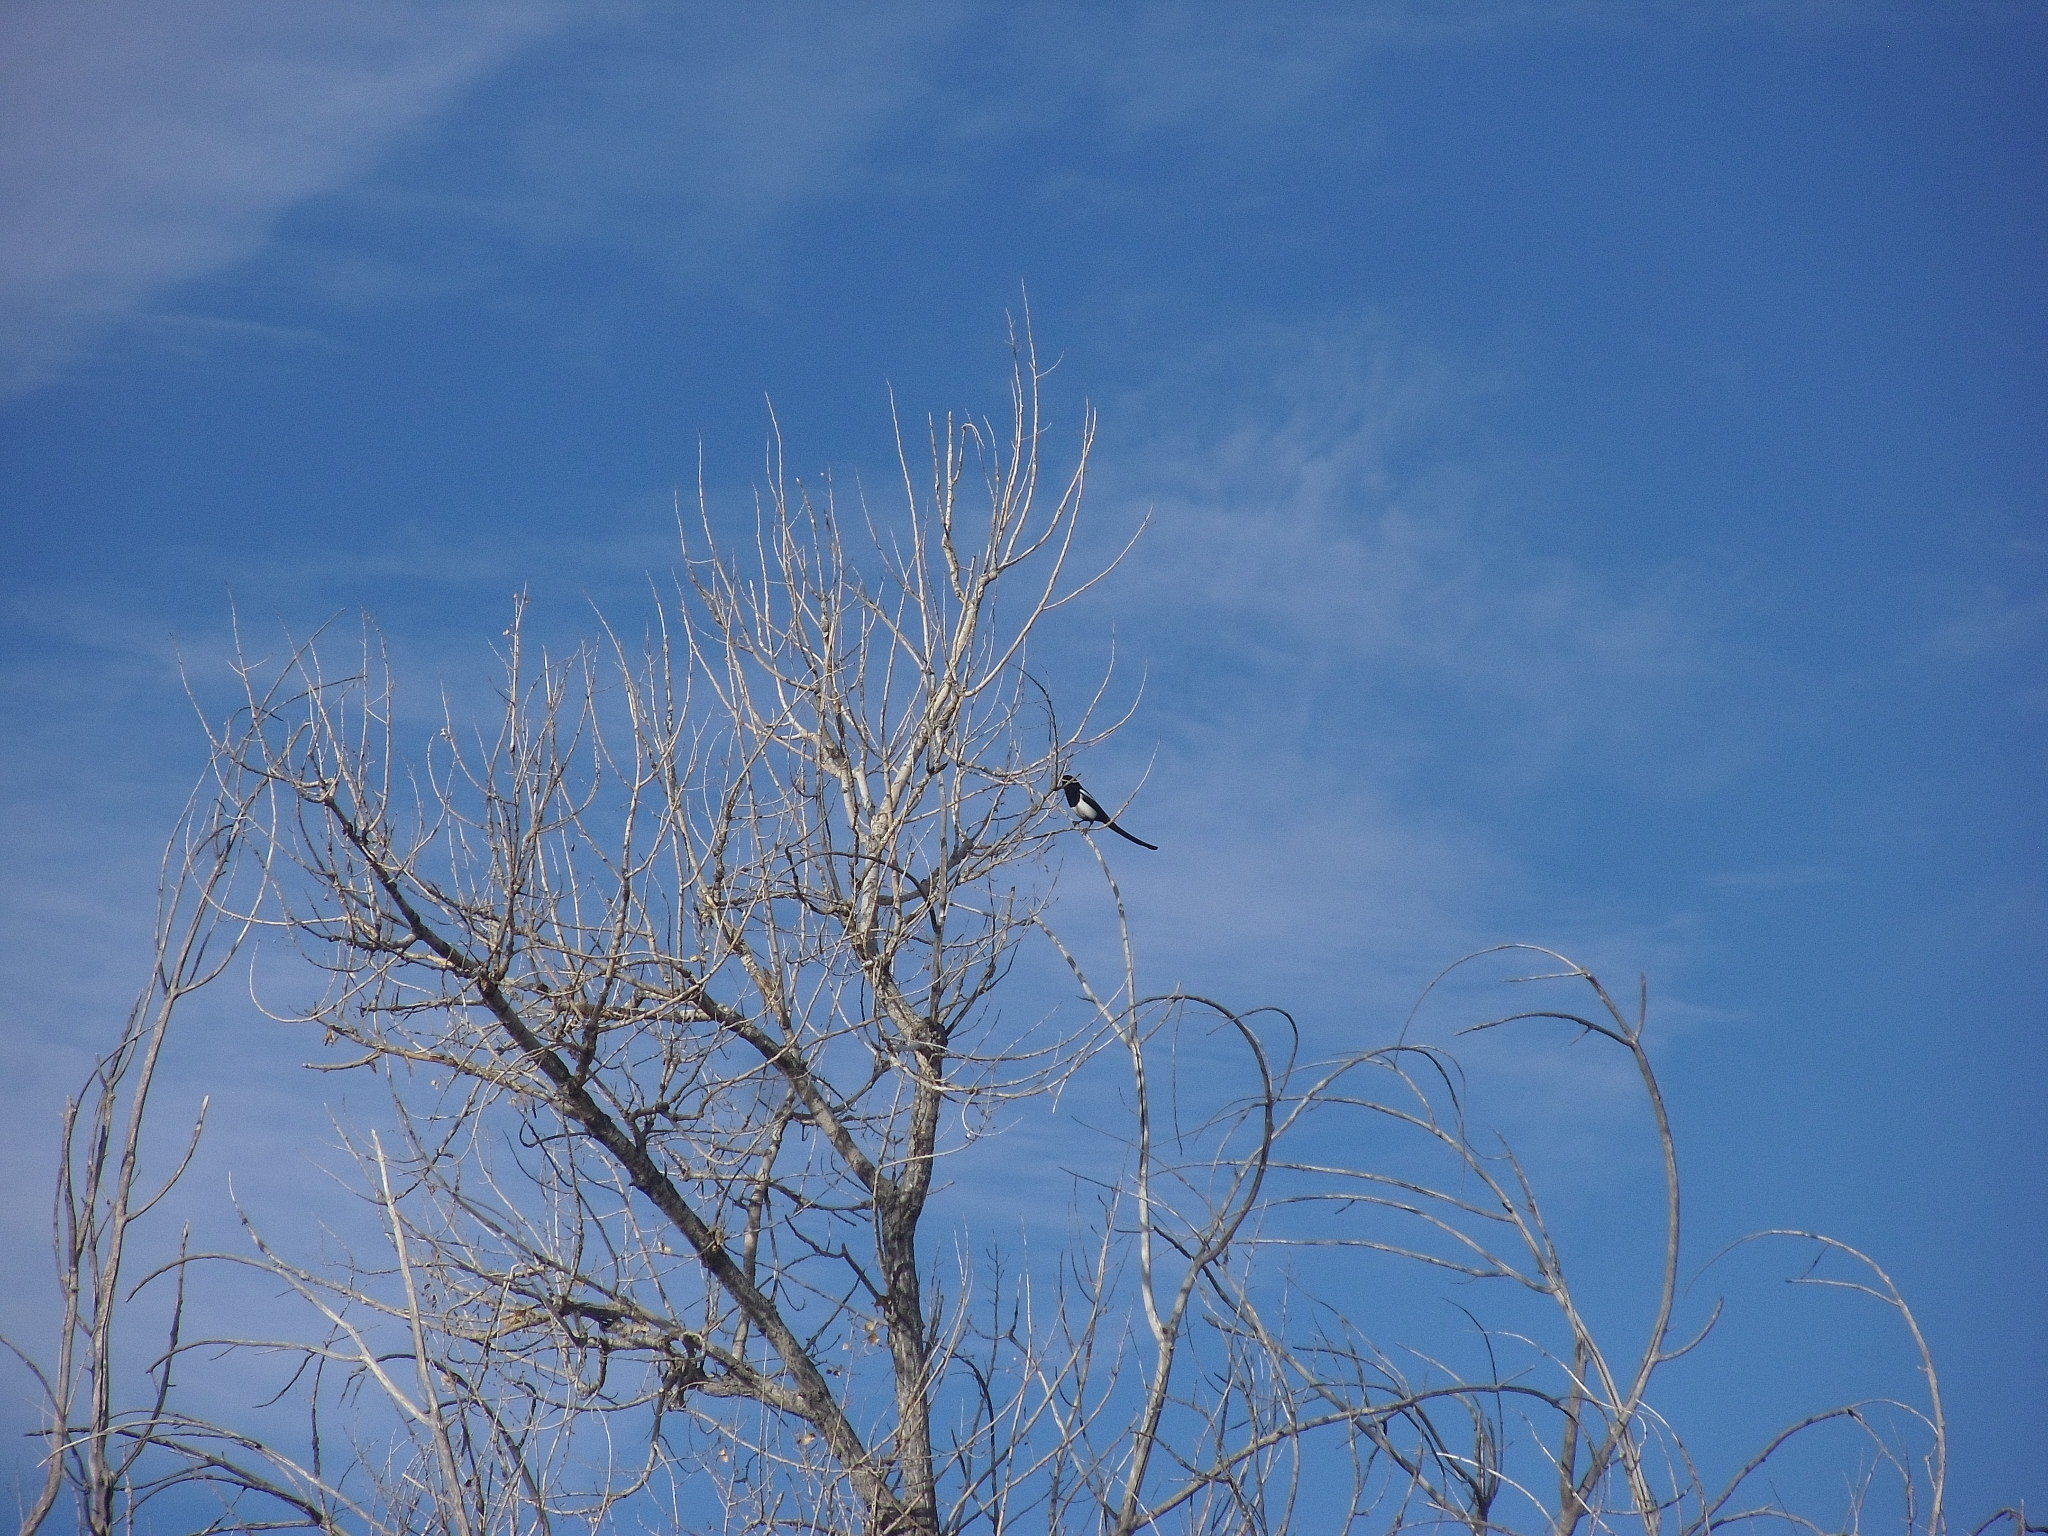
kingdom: Animalia
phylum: Chordata
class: Aves
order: Passeriformes
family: Corvidae
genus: Pica
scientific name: Pica hudsonia
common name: Black-billed magpie
